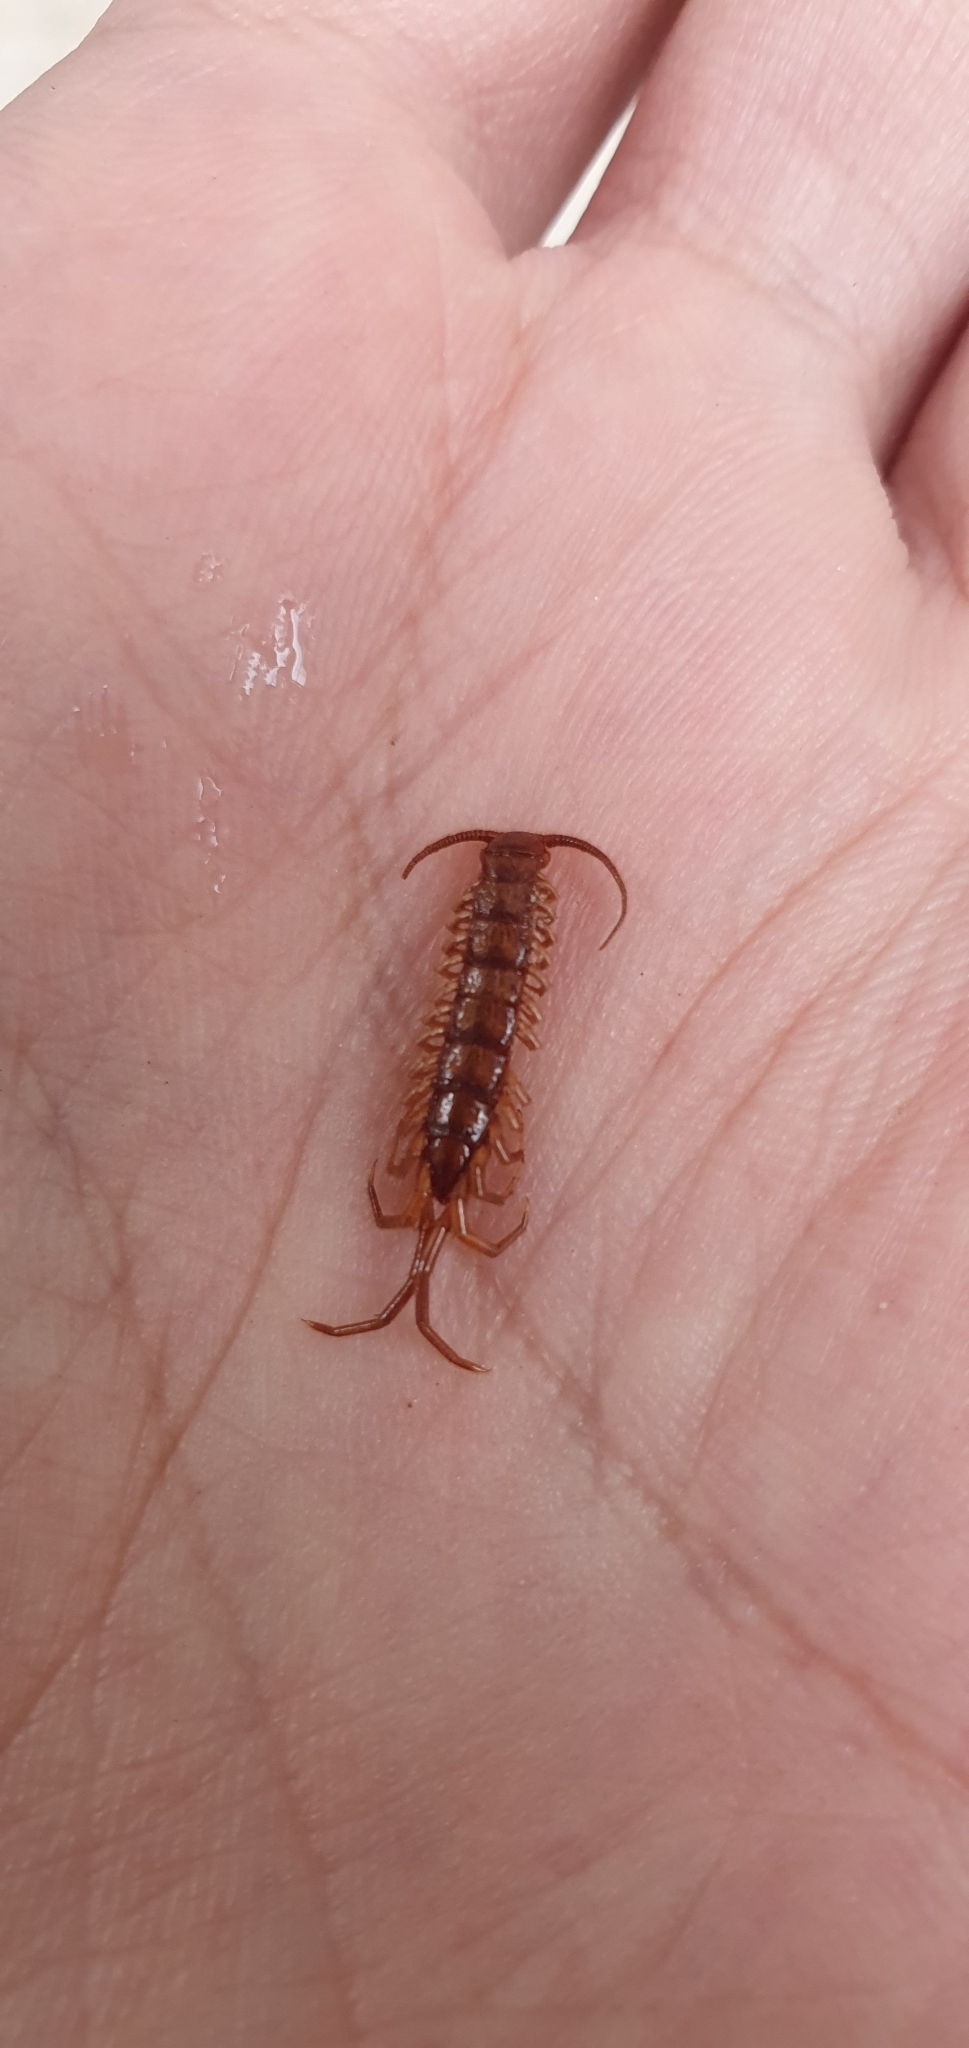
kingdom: Animalia
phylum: Arthropoda
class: Chilopoda
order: Lithobiomorpha
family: Lithobiidae
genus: Lithobius
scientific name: Lithobius forficatus
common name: Centipede
